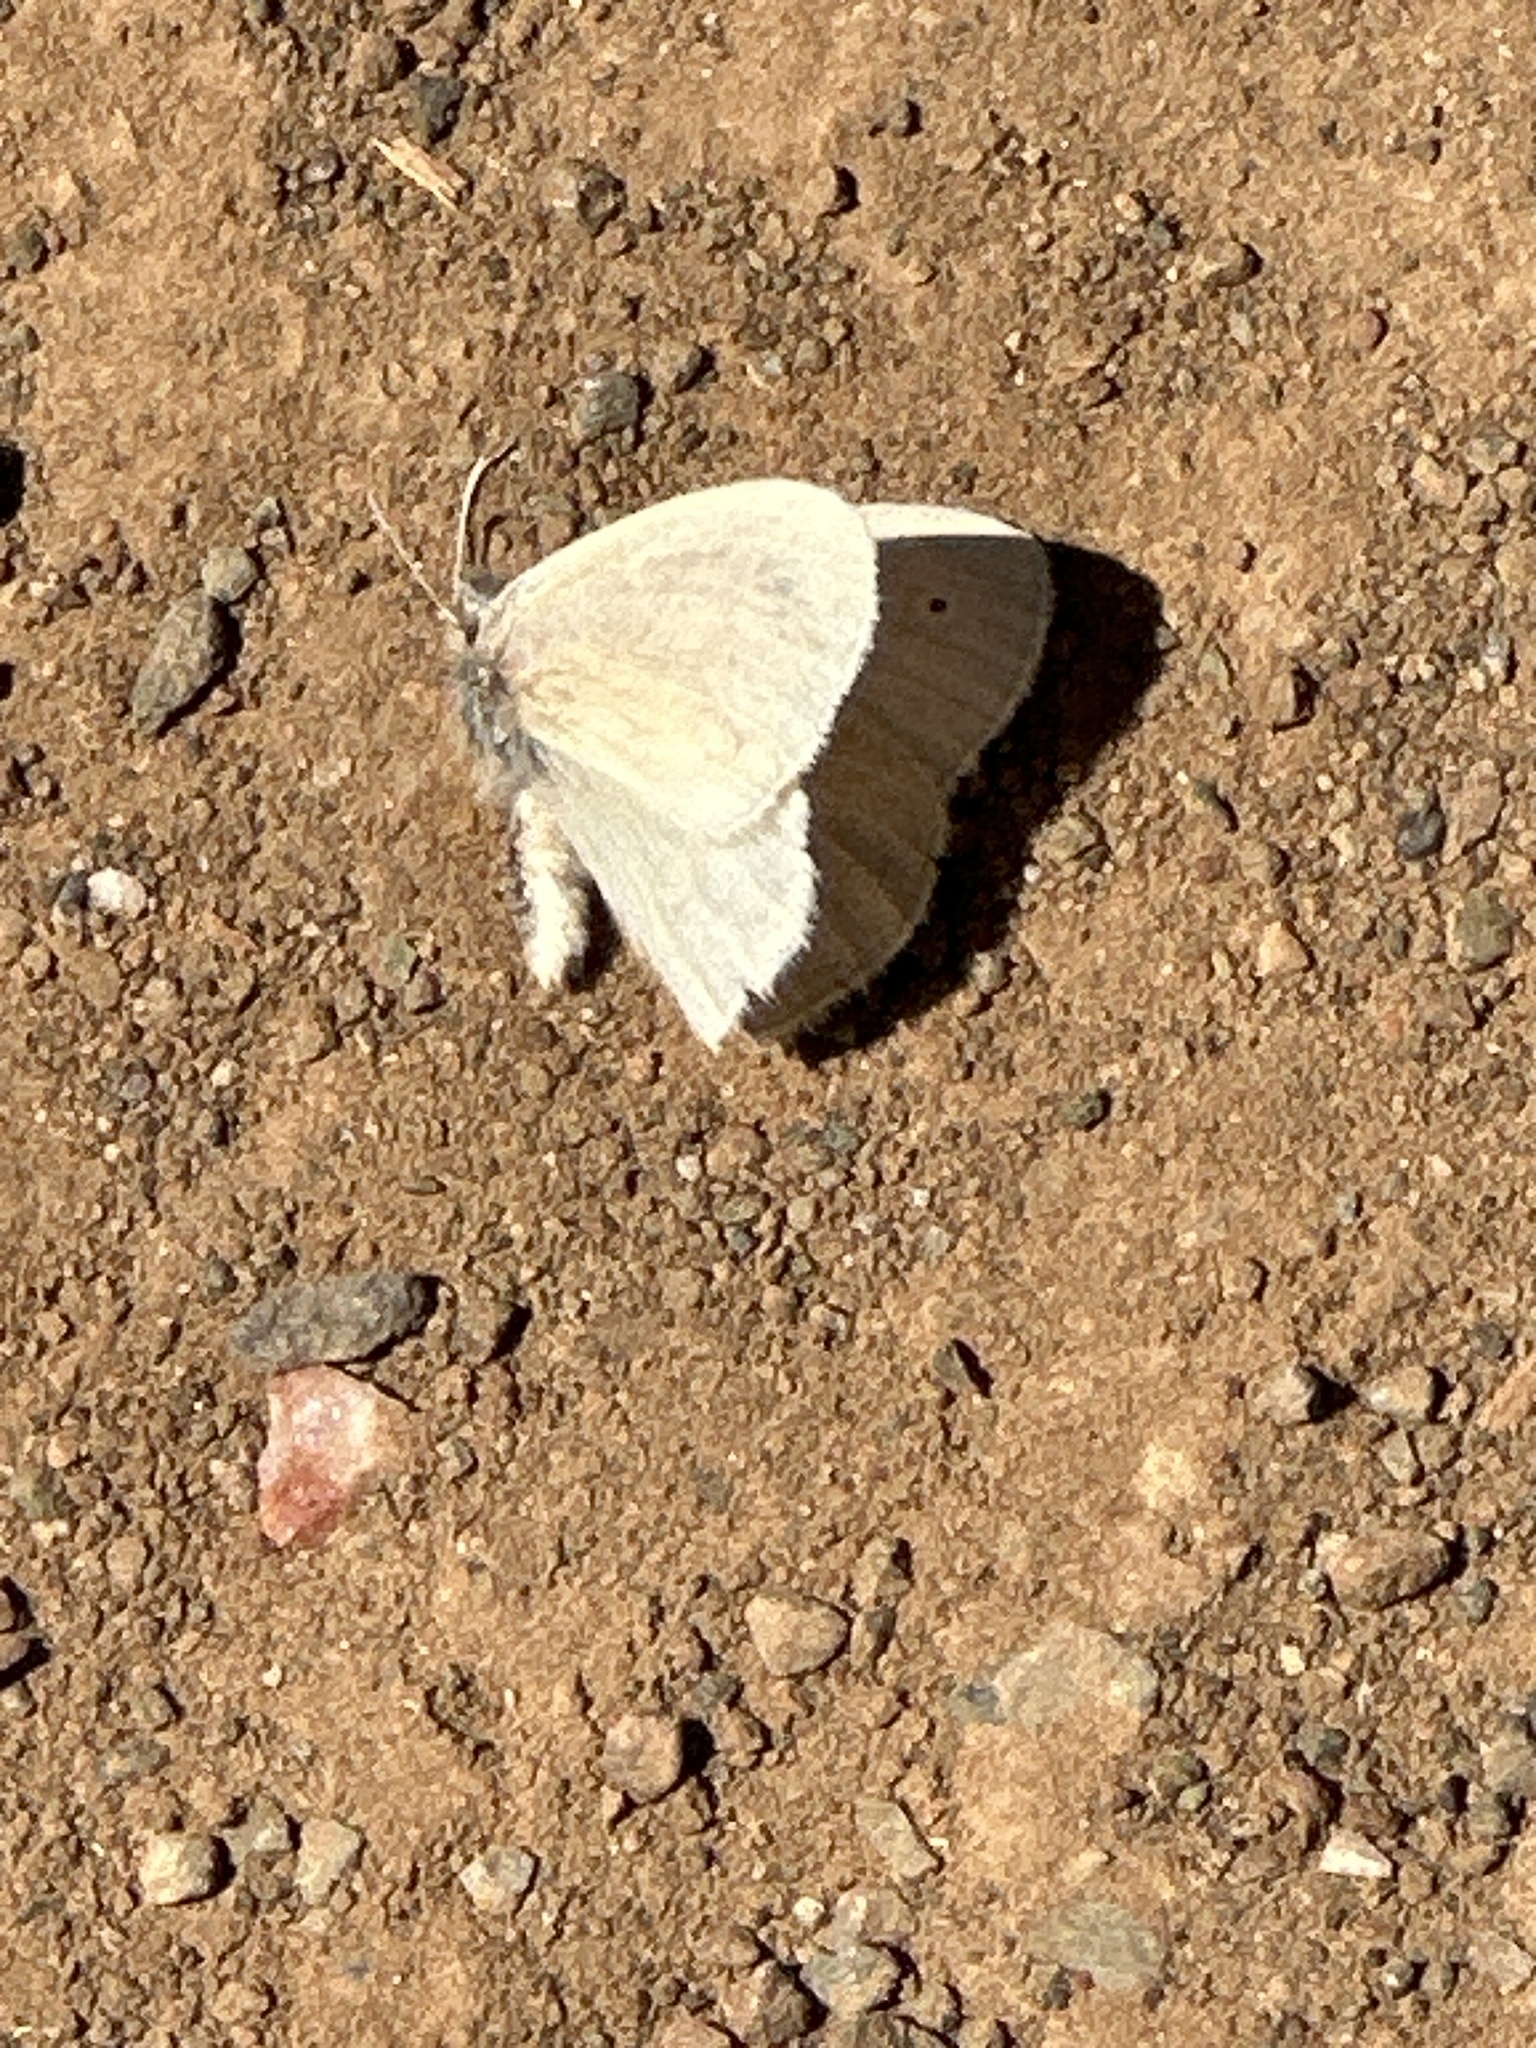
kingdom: Animalia
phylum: Arthropoda
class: Insecta
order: Lepidoptera
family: Nymphalidae
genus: Coenonympha
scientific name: Coenonympha california
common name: Common ringlet
